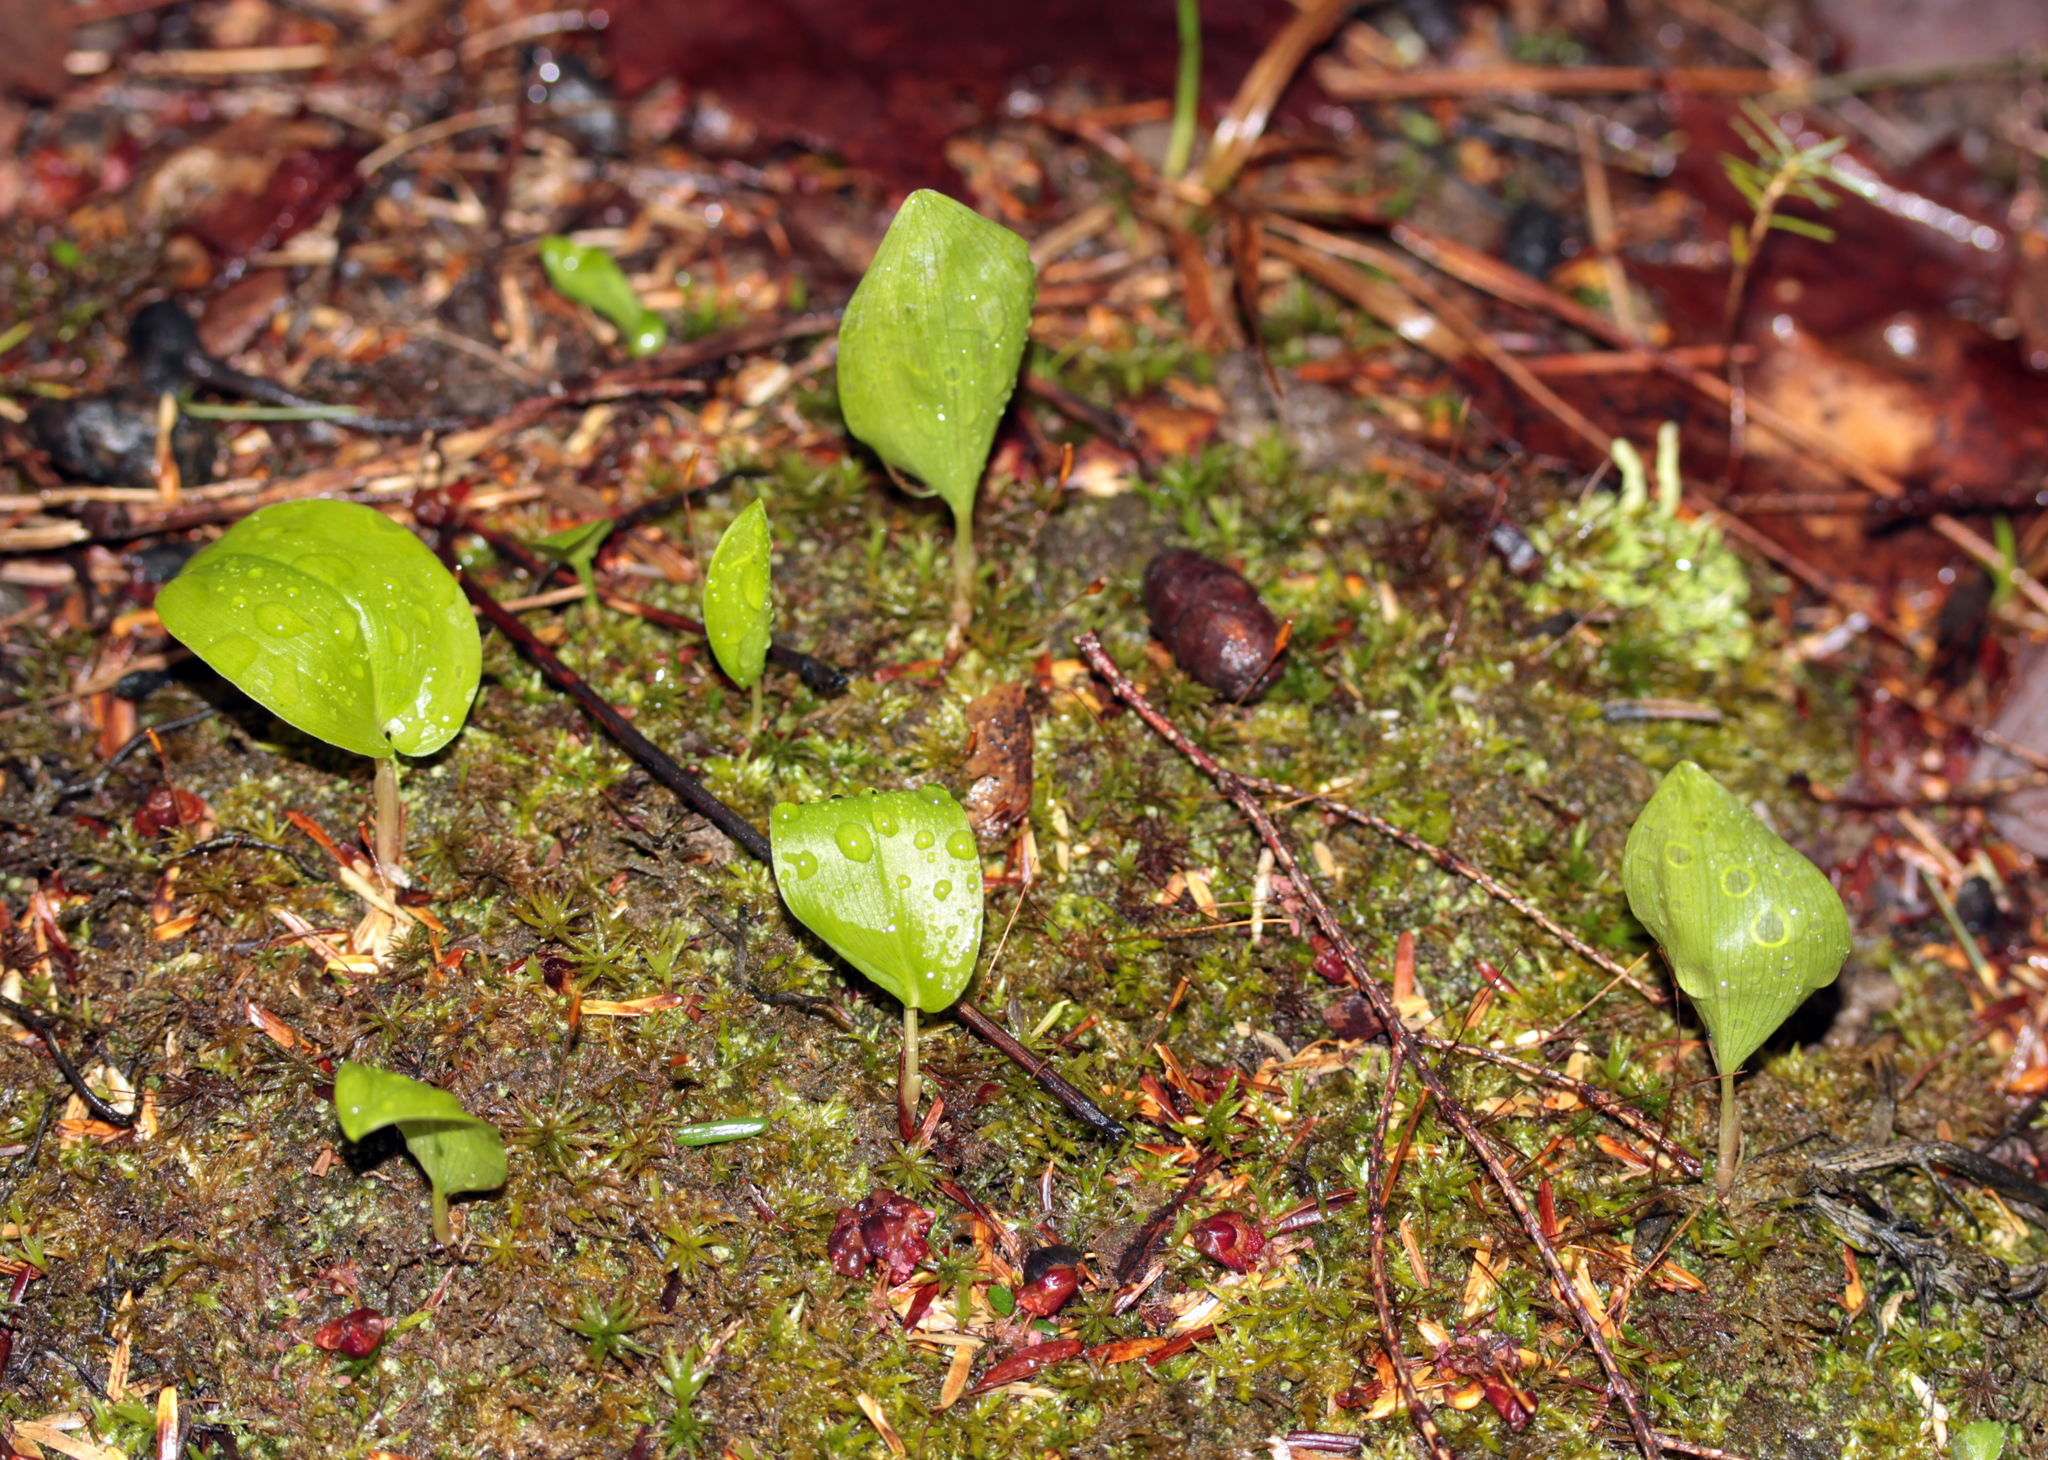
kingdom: Plantae
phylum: Tracheophyta
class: Liliopsida
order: Asparagales
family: Asparagaceae
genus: Maianthemum
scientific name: Maianthemum canadense
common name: False lily-of-the-valley
